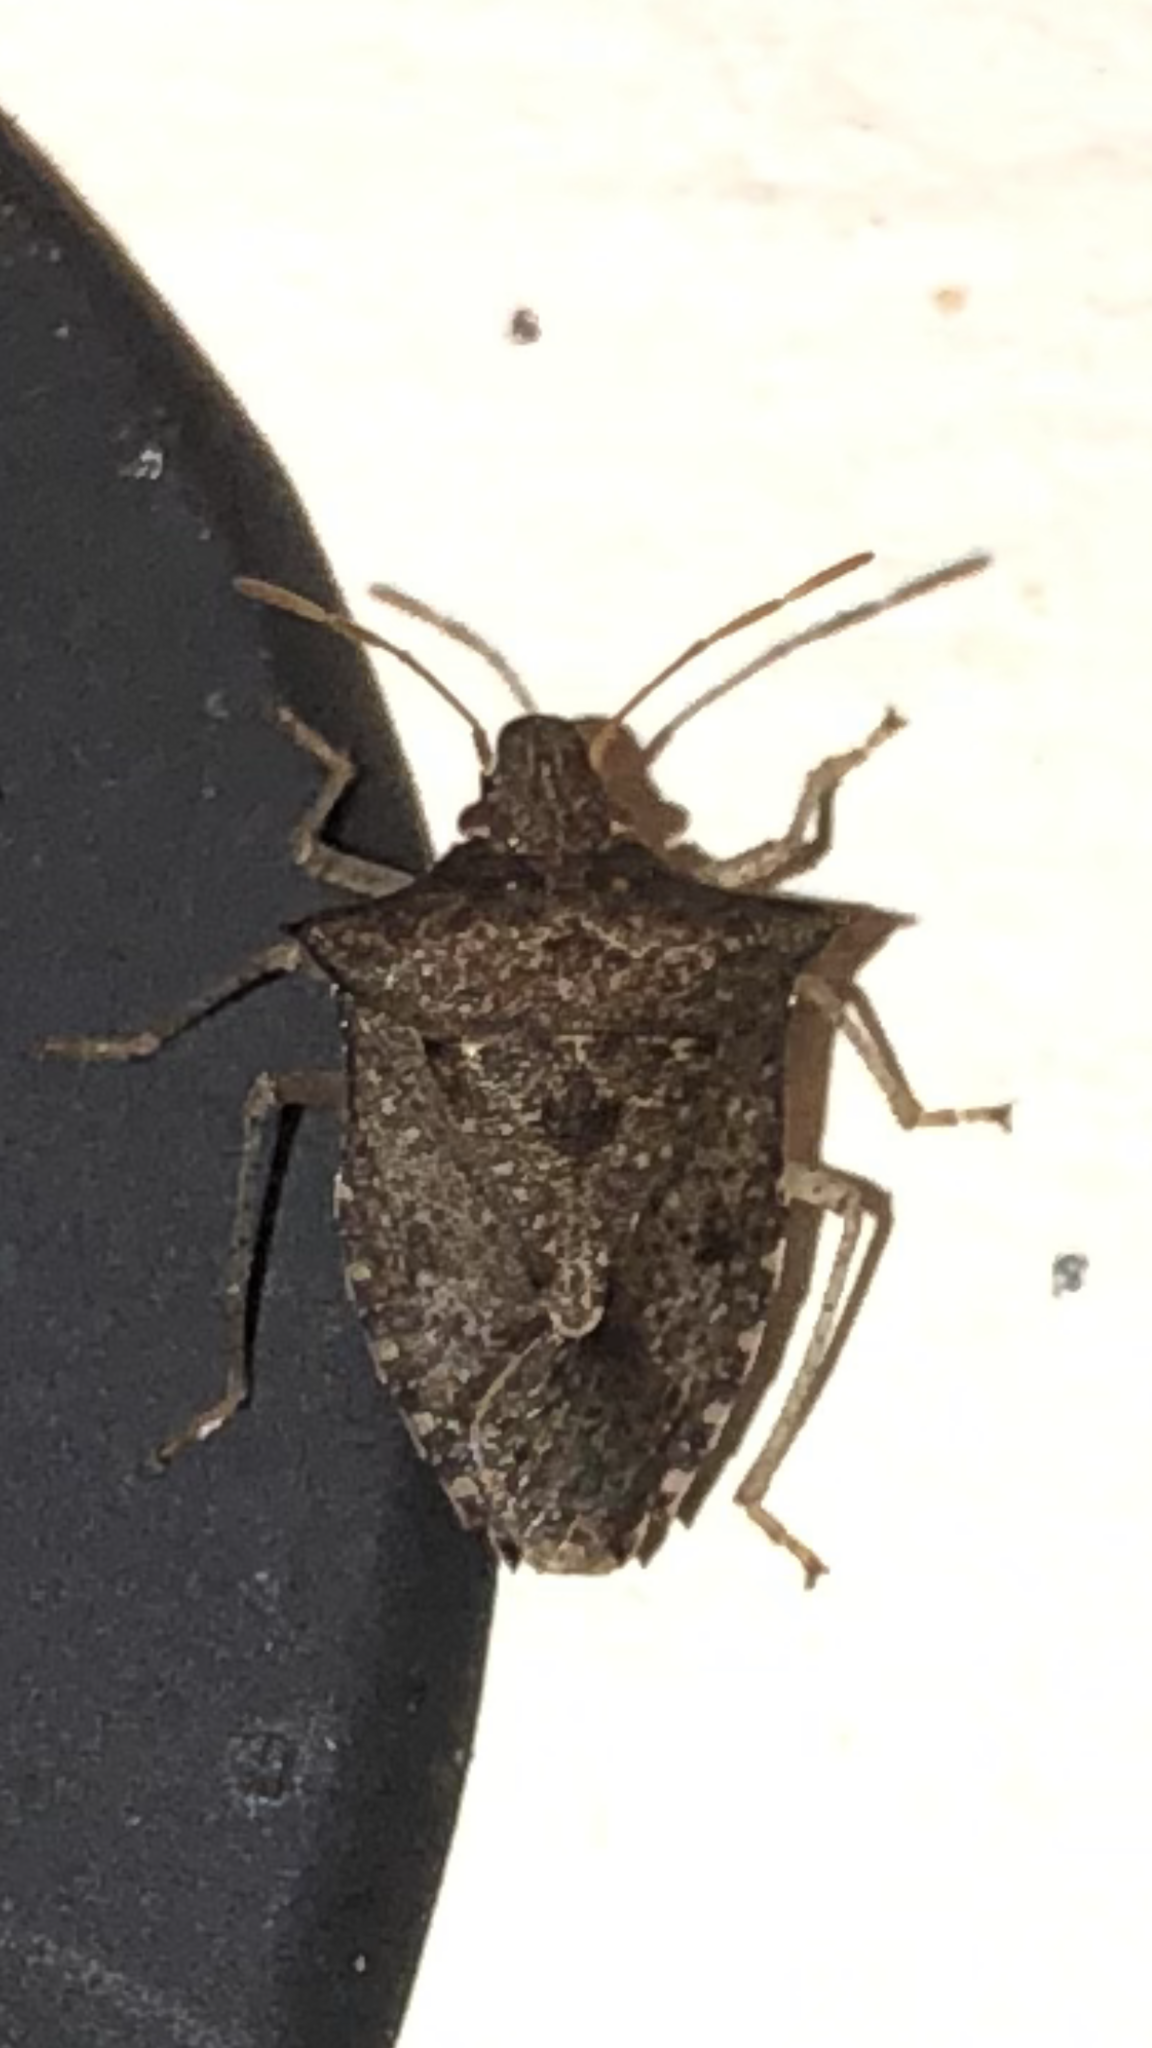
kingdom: Animalia
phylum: Arthropoda
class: Insecta
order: Hemiptera
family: Pentatomidae
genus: Euschistus
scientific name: Euschistus tristigmus
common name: Dusky stink bug
